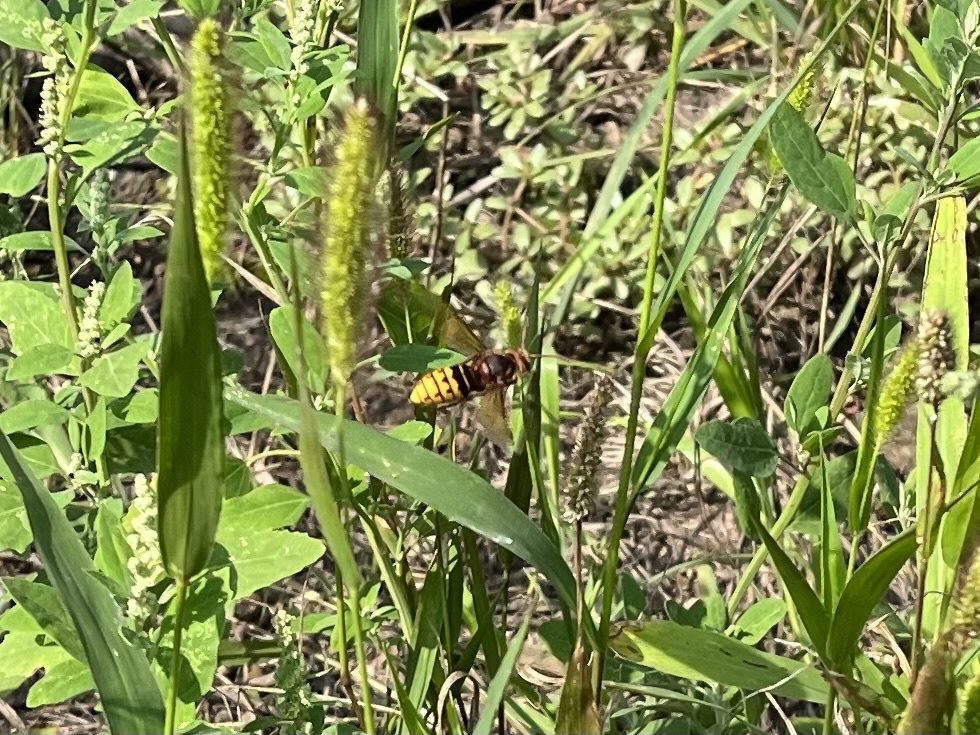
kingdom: Animalia
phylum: Arthropoda
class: Insecta
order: Hymenoptera
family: Vespidae
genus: Vespa
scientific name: Vespa crabro
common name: Hornet
